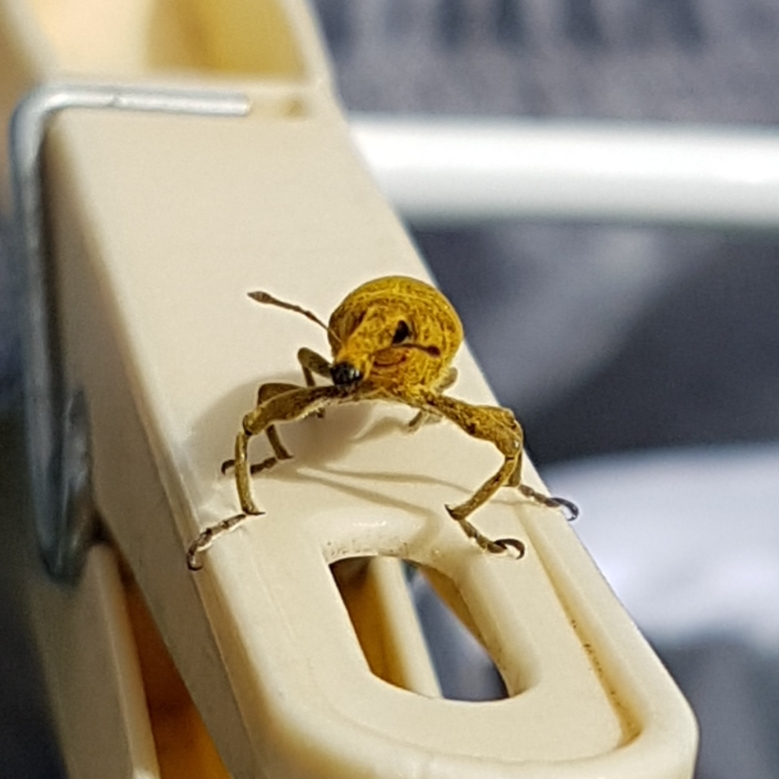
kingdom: Animalia
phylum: Arthropoda
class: Insecta
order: Coleoptera
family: Curculionidae
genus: Lixus
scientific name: Lixus pulverulentus
